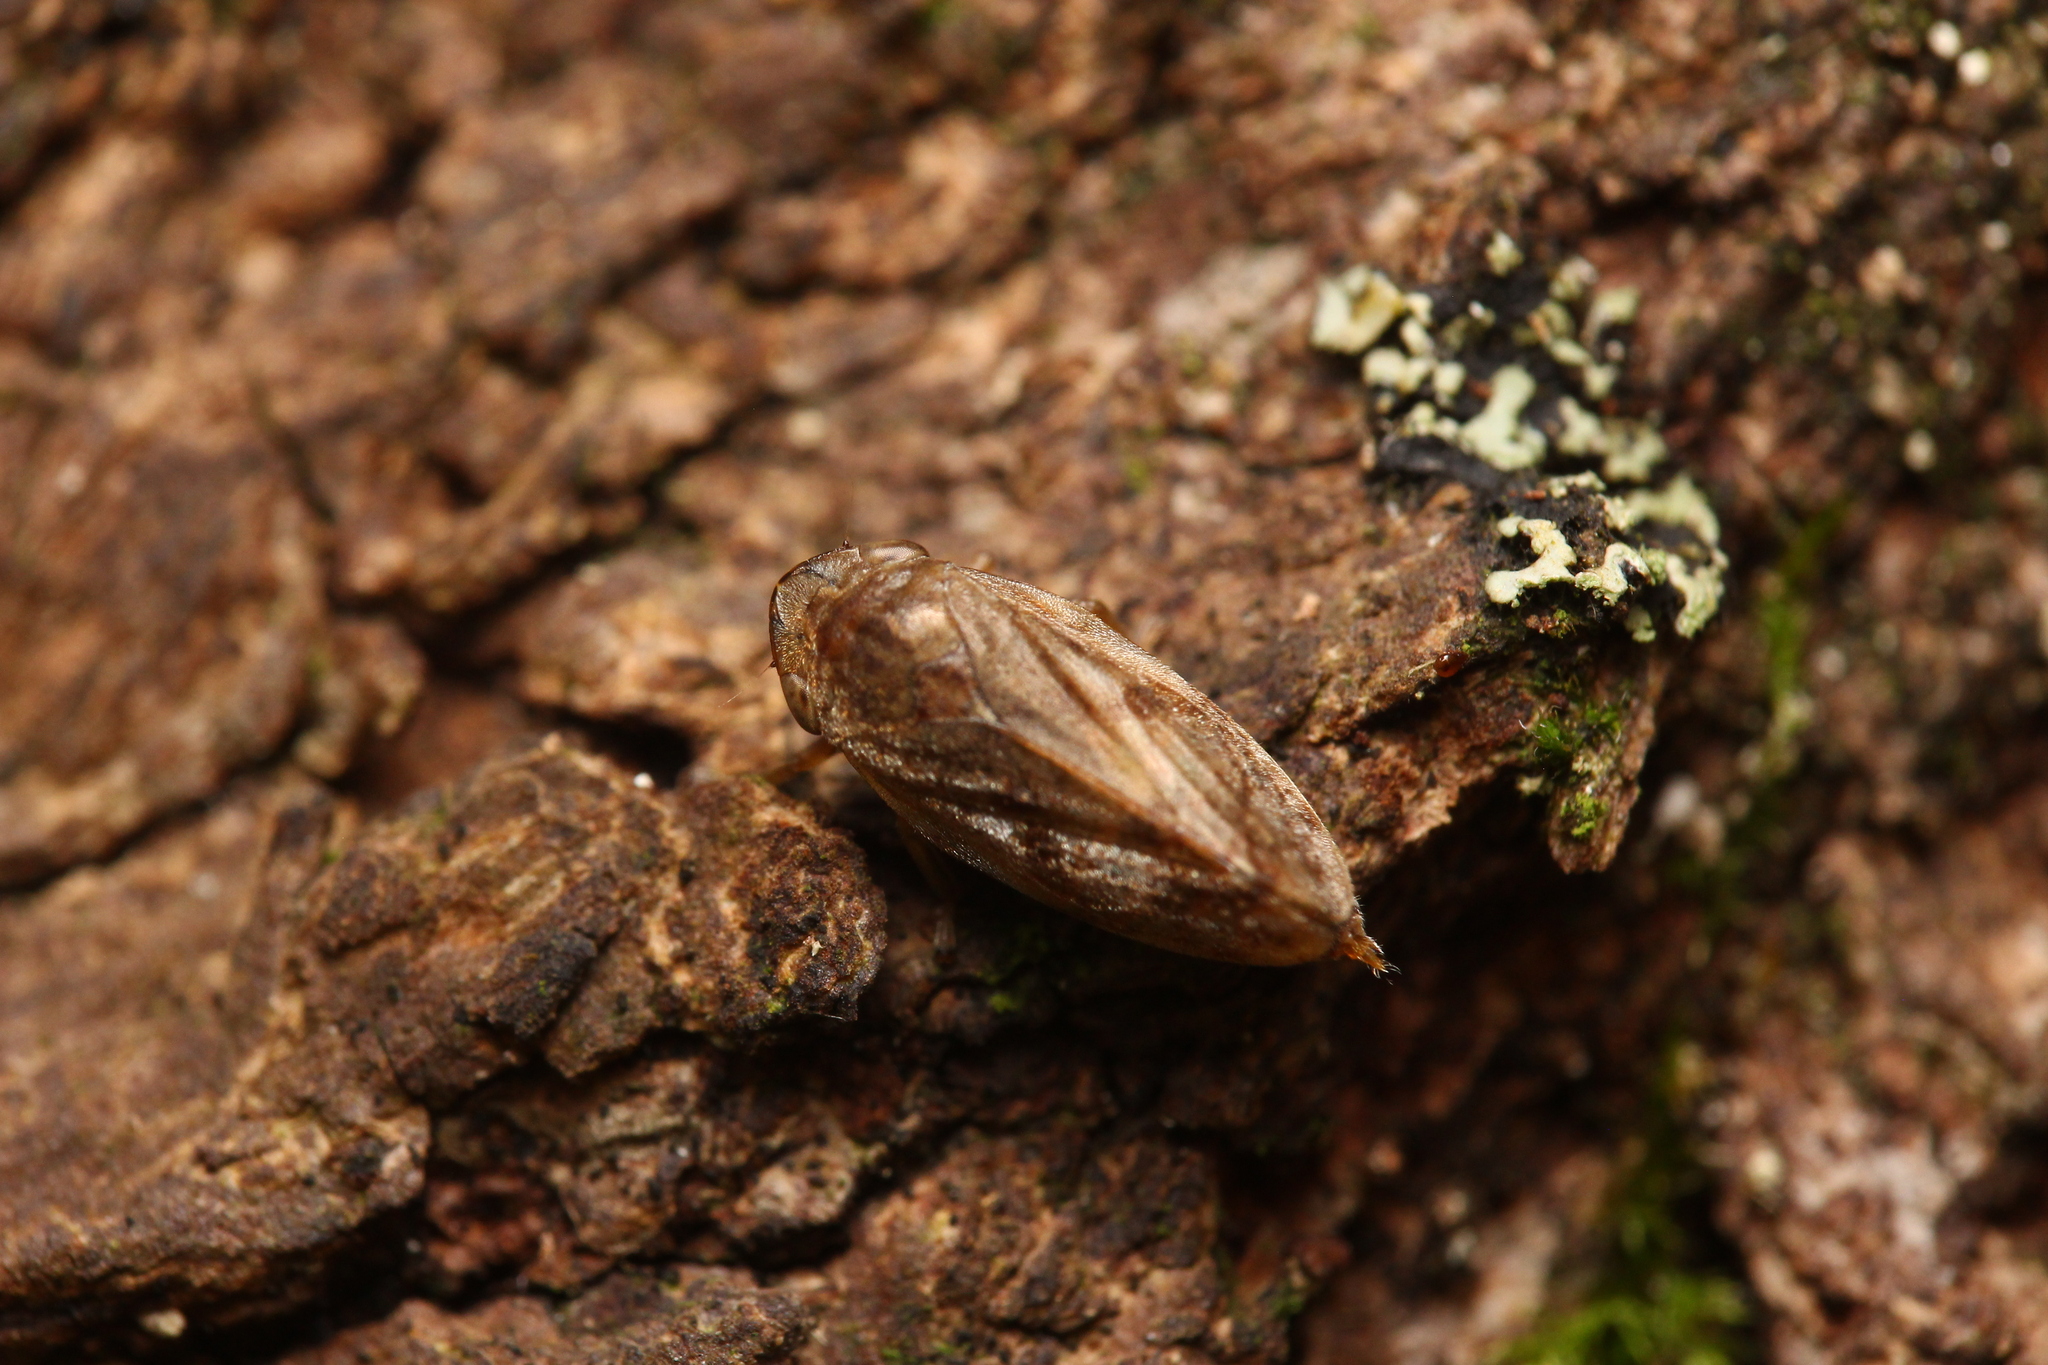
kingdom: Animalia
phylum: Arthropoda
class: Insecta
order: Hemiptera
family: Aphrophoridae
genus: Philaenus
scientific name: Philaenus spumarius
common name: Meadow spittlebug
